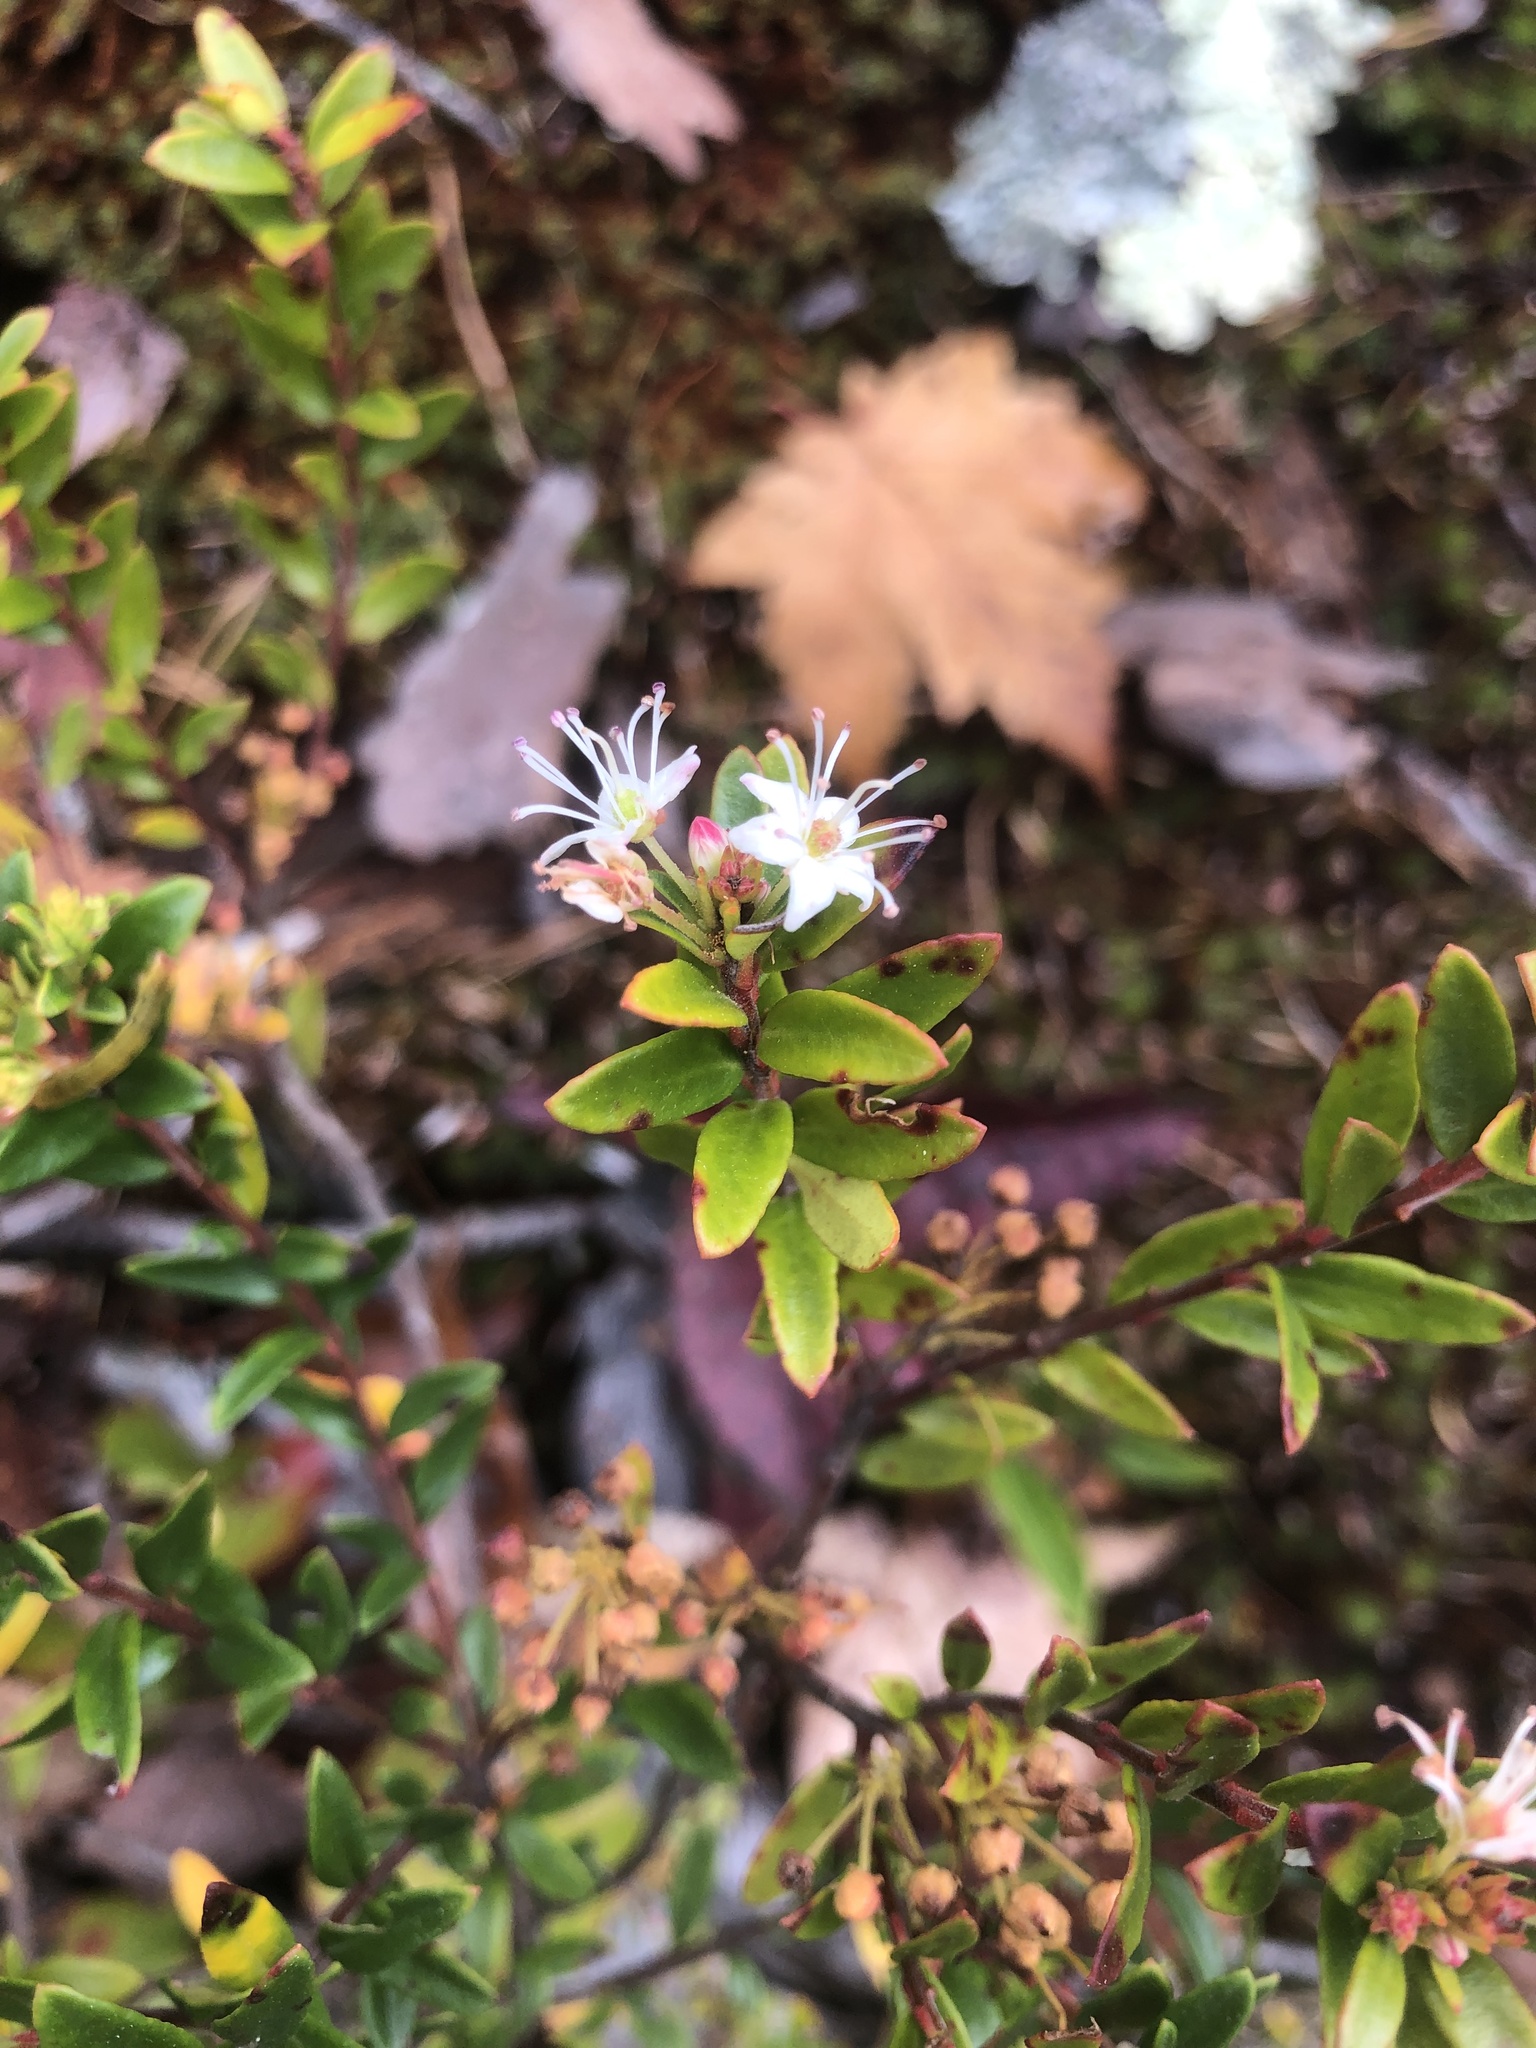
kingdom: Plantae
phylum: Tracheophyta
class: Magnoliopsida
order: Ericales
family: Ericaceae
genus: Kalmia
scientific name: Kalmia buxifolia
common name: Sandmyrtle
